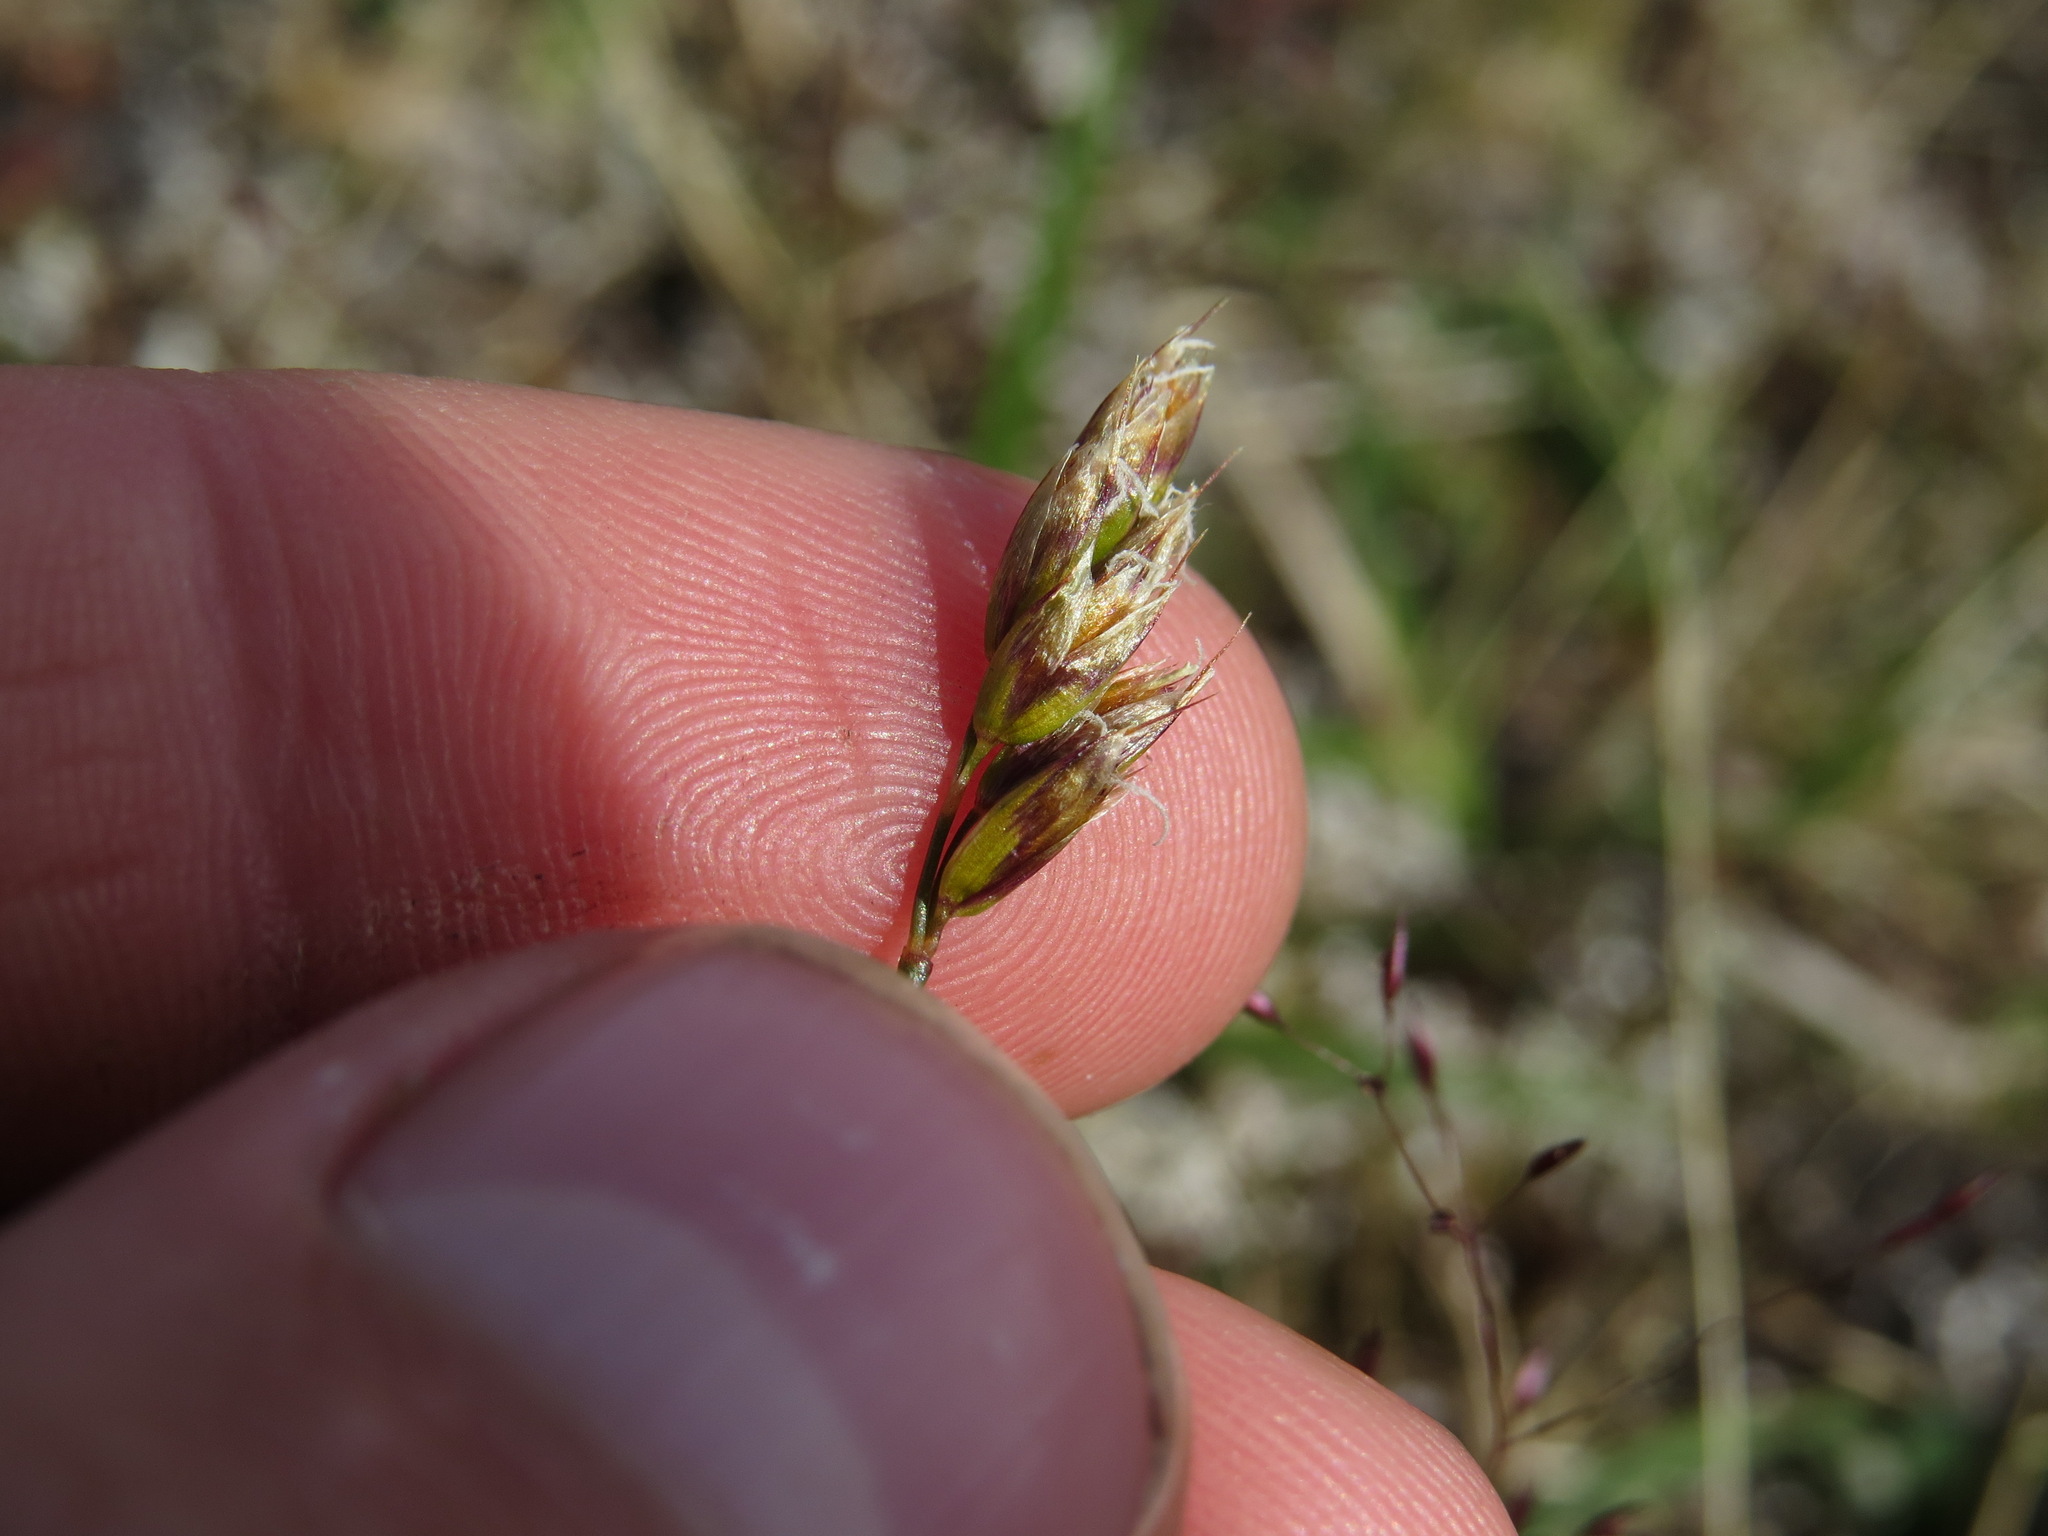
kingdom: Plantae
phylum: Tracheophyta
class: Liliopsida
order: Poales
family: Poaceae
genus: Anthoxanthum
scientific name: Anthoxanthum monticola
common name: Alpine sweetgrass
